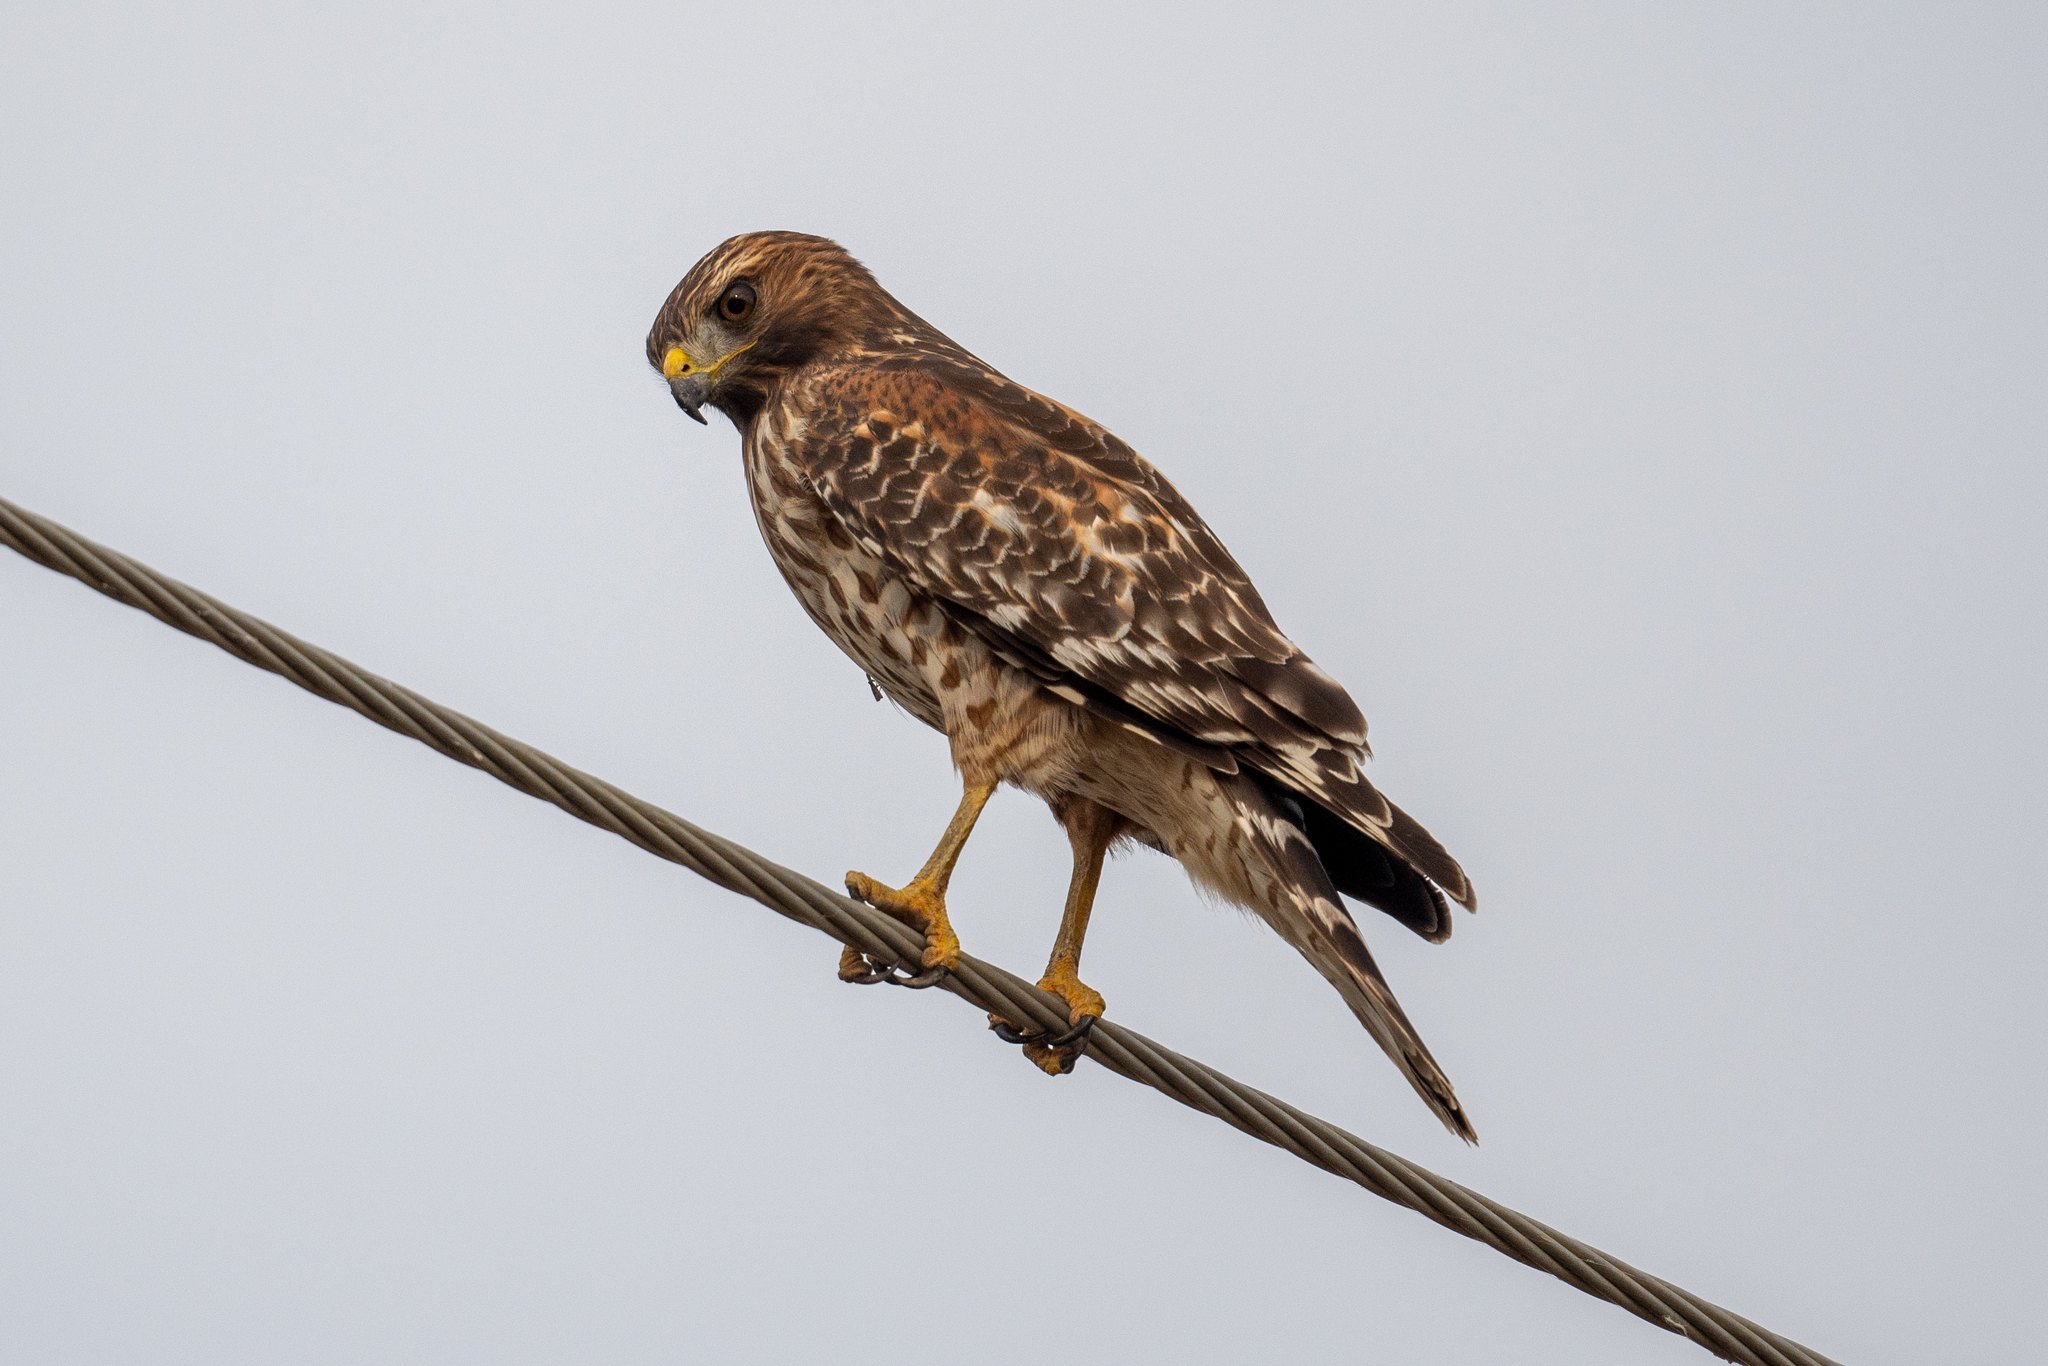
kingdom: Animalia
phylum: Chordata
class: Aves
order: Accipitriformes
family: Accipitridae
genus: Buteo
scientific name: Buteo lineatus
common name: Red-shouldered hawk
